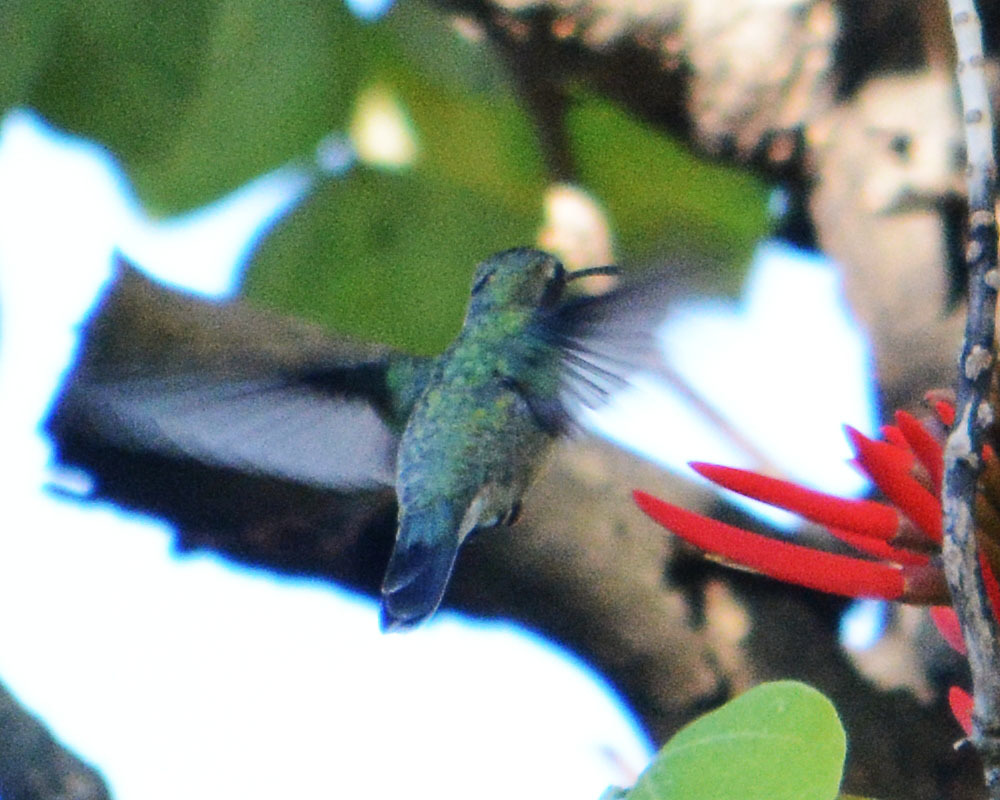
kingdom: Animalia
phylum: Chordata
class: Aves
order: Apodiformes
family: Trochilidae
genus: Cynanthus
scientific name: Cynanthus latirostris
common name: Broad-billed hummingbird
